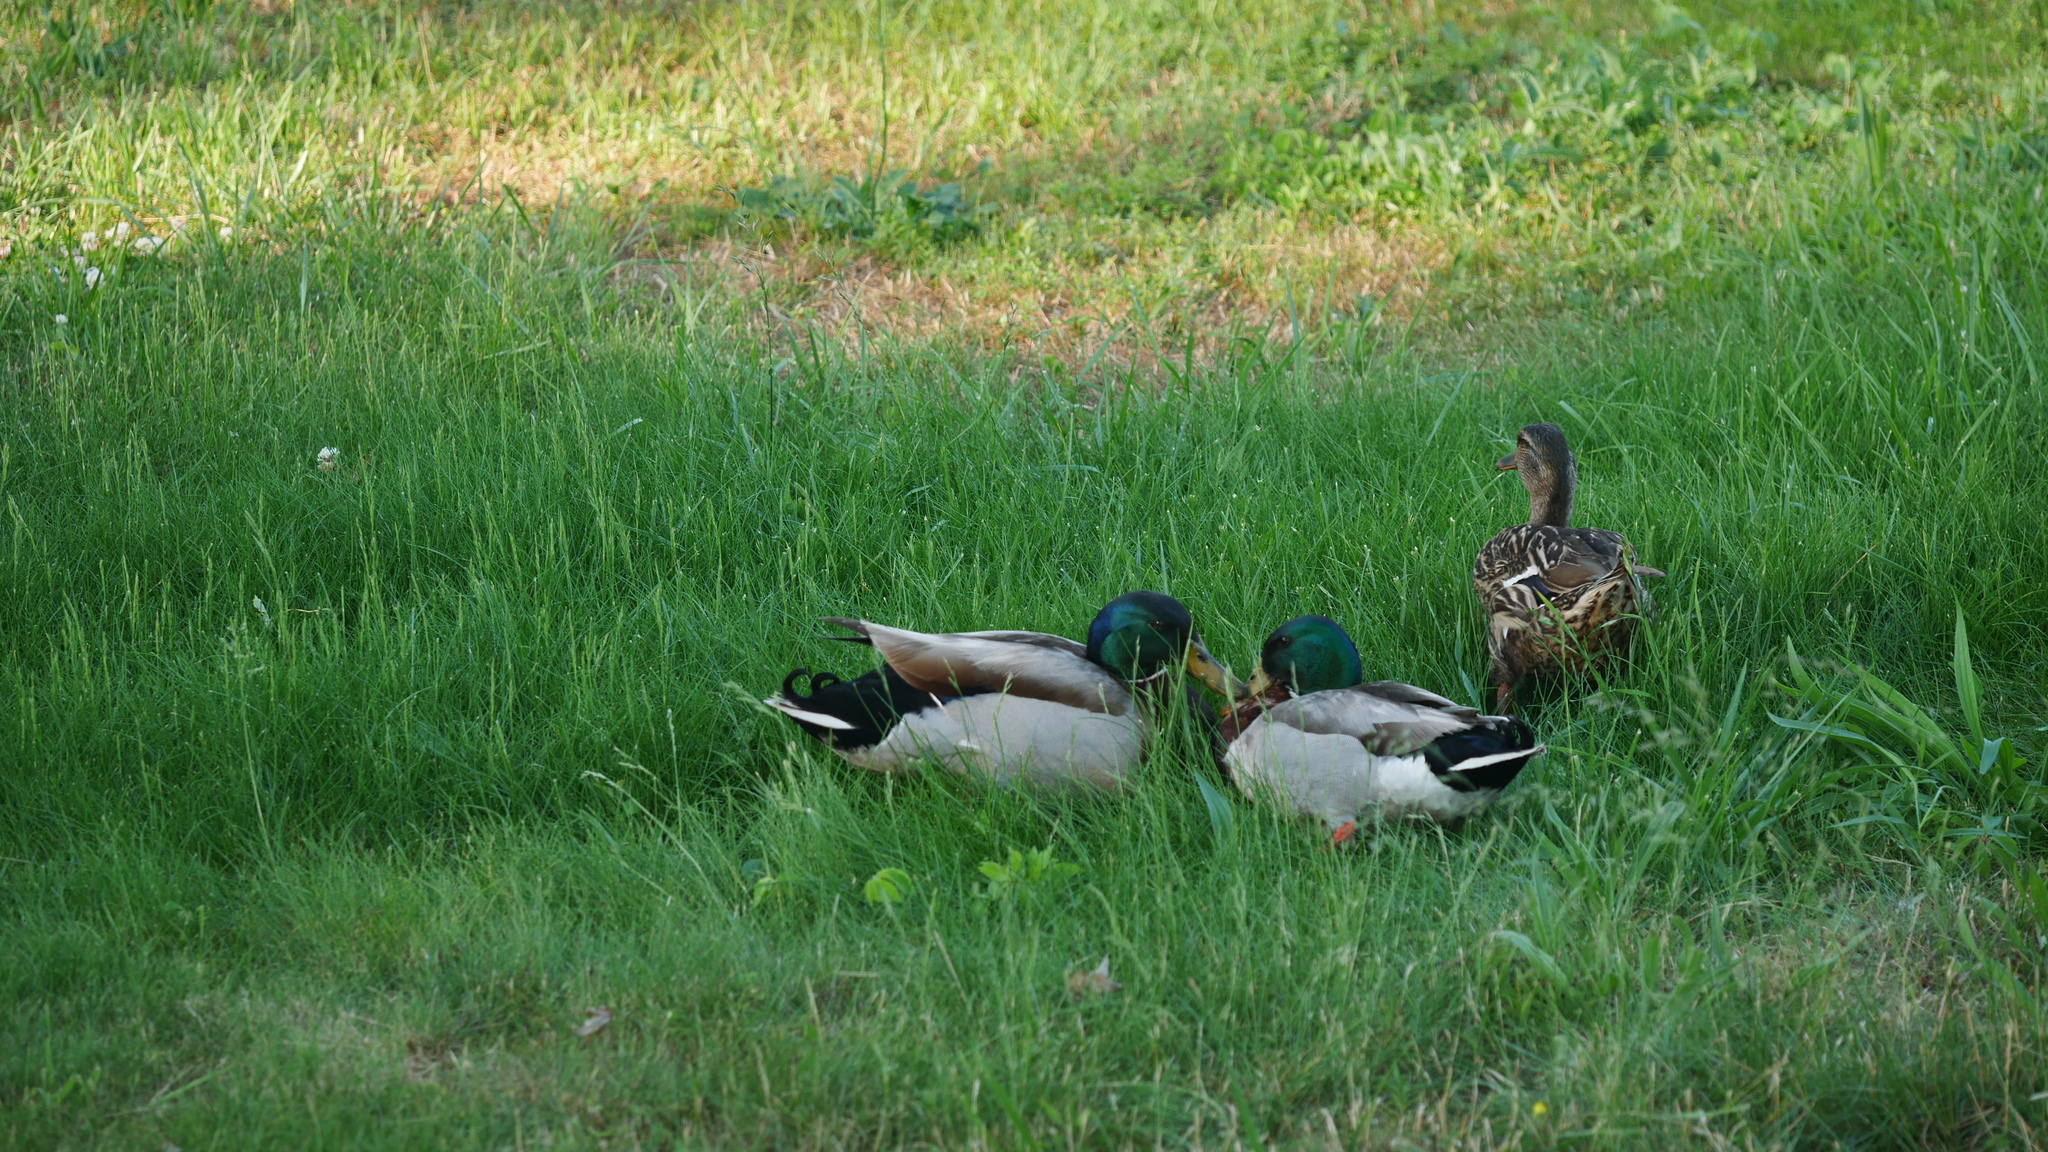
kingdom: Animalia
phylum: Chordata
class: Aves
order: Anseriformes
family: Anatidae
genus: Anas
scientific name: Anas platyrhynchos
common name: Mallard
